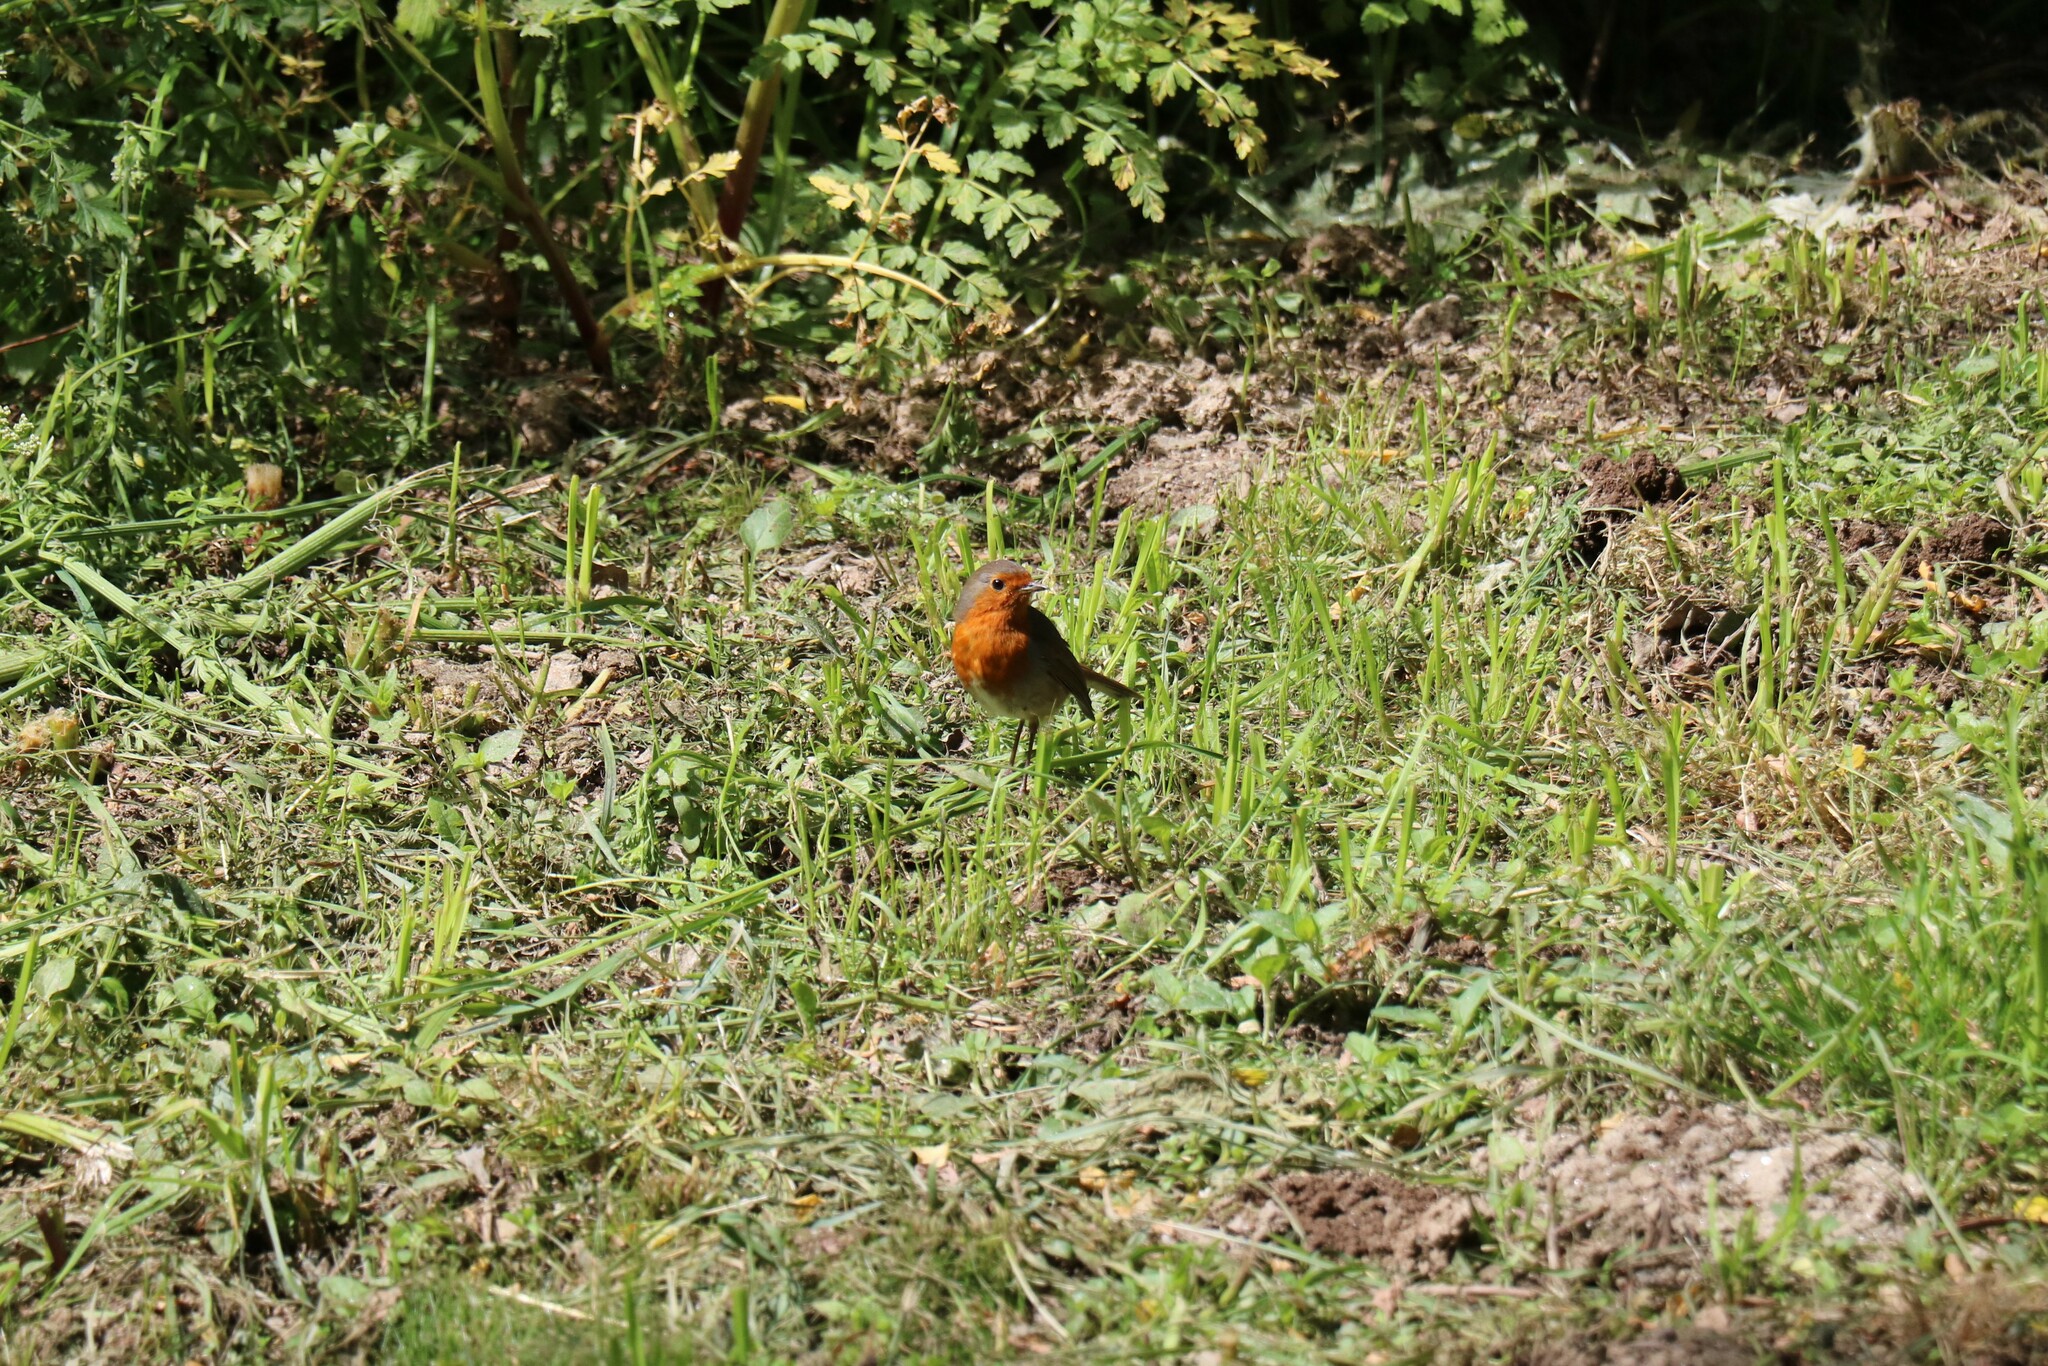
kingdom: Animalia
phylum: Chordata
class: Aves
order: Passeriformes
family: Muscicapidae
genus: Erithacus
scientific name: Erithacus rubecula
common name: European robin
